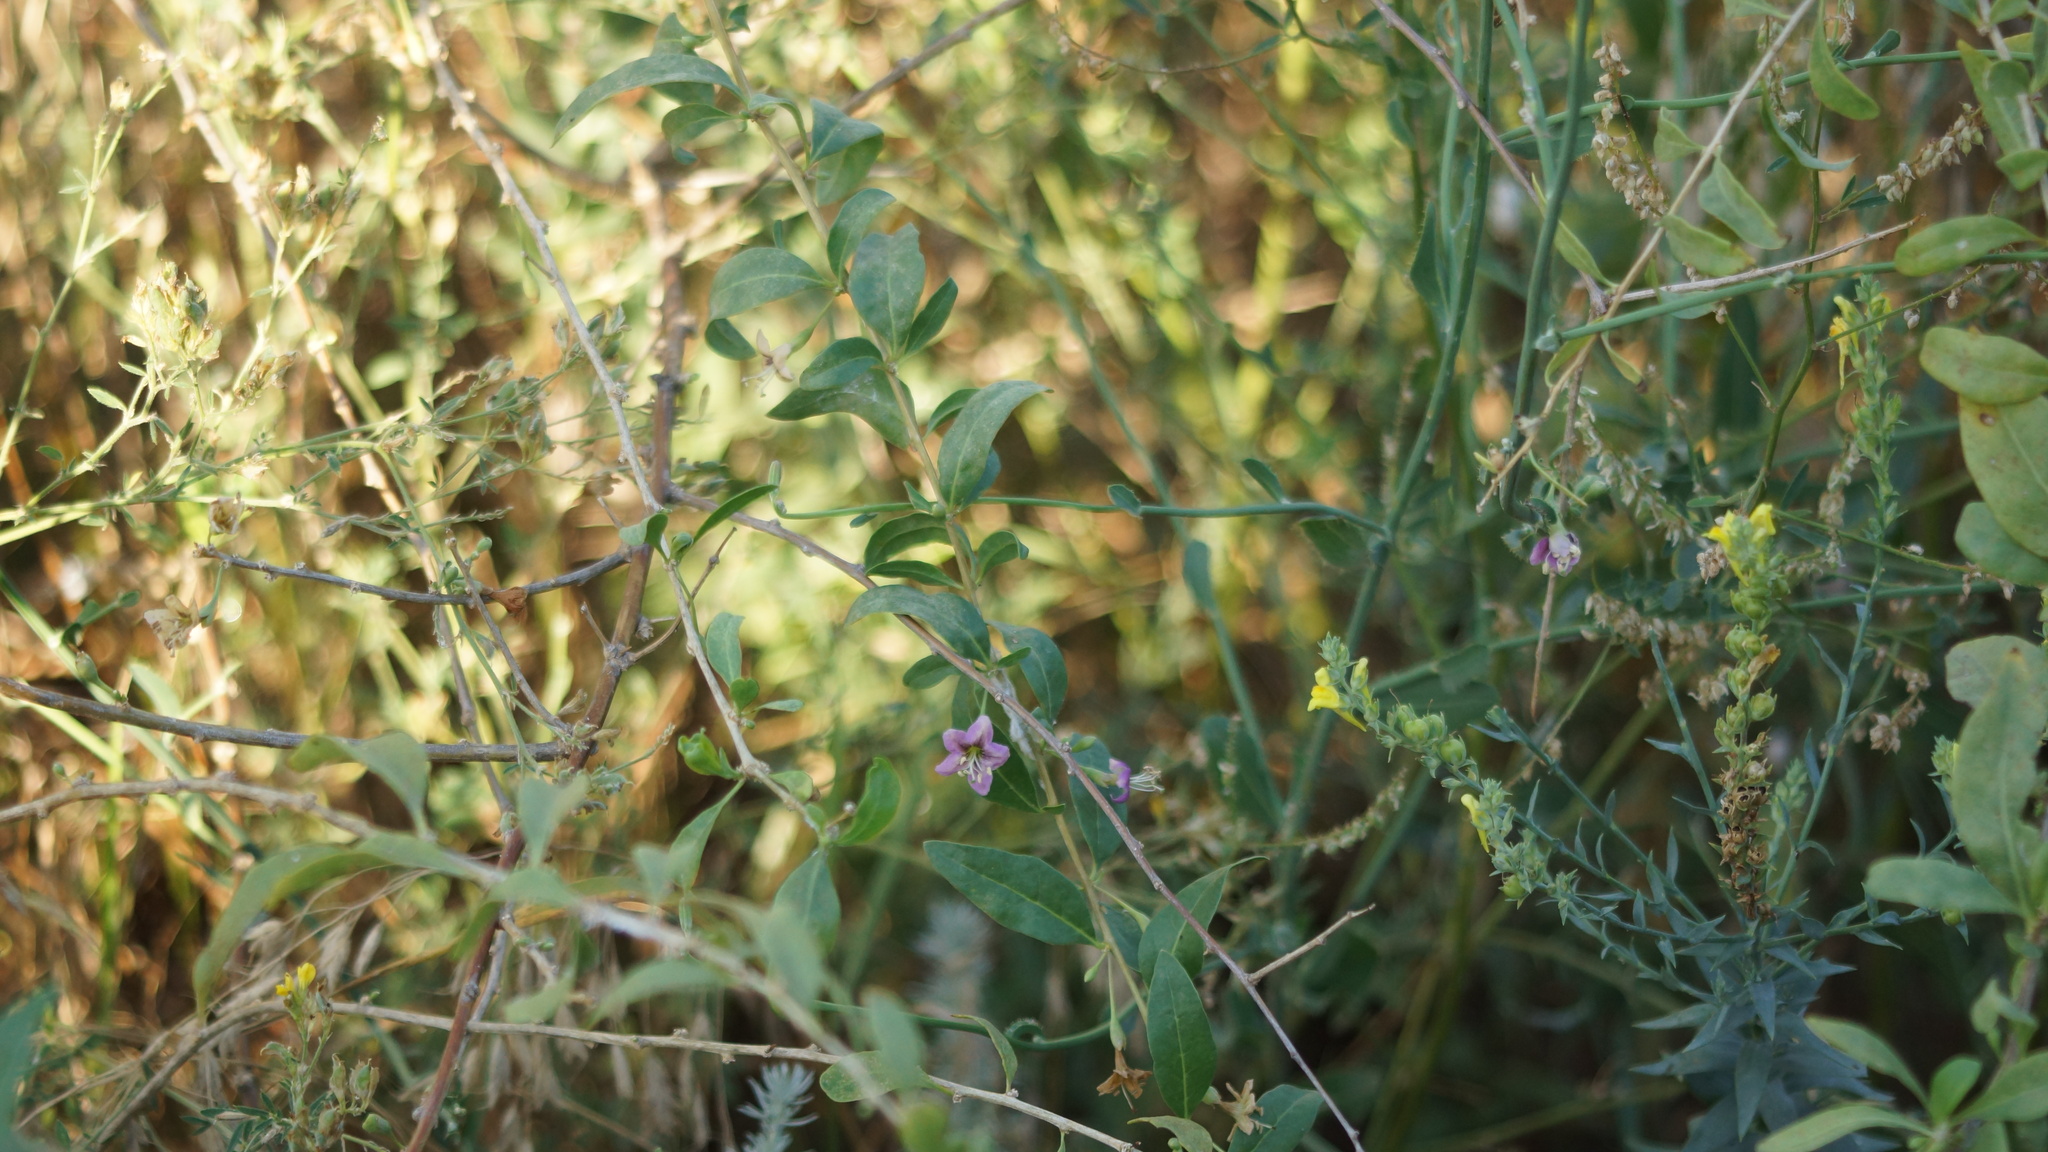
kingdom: Plantae
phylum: Tracheophyta
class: Magnoliopsida
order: Solanales
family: Solanaceae
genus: Lycium
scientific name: Lycium barbarum
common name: Duke of argyll's teaplant
